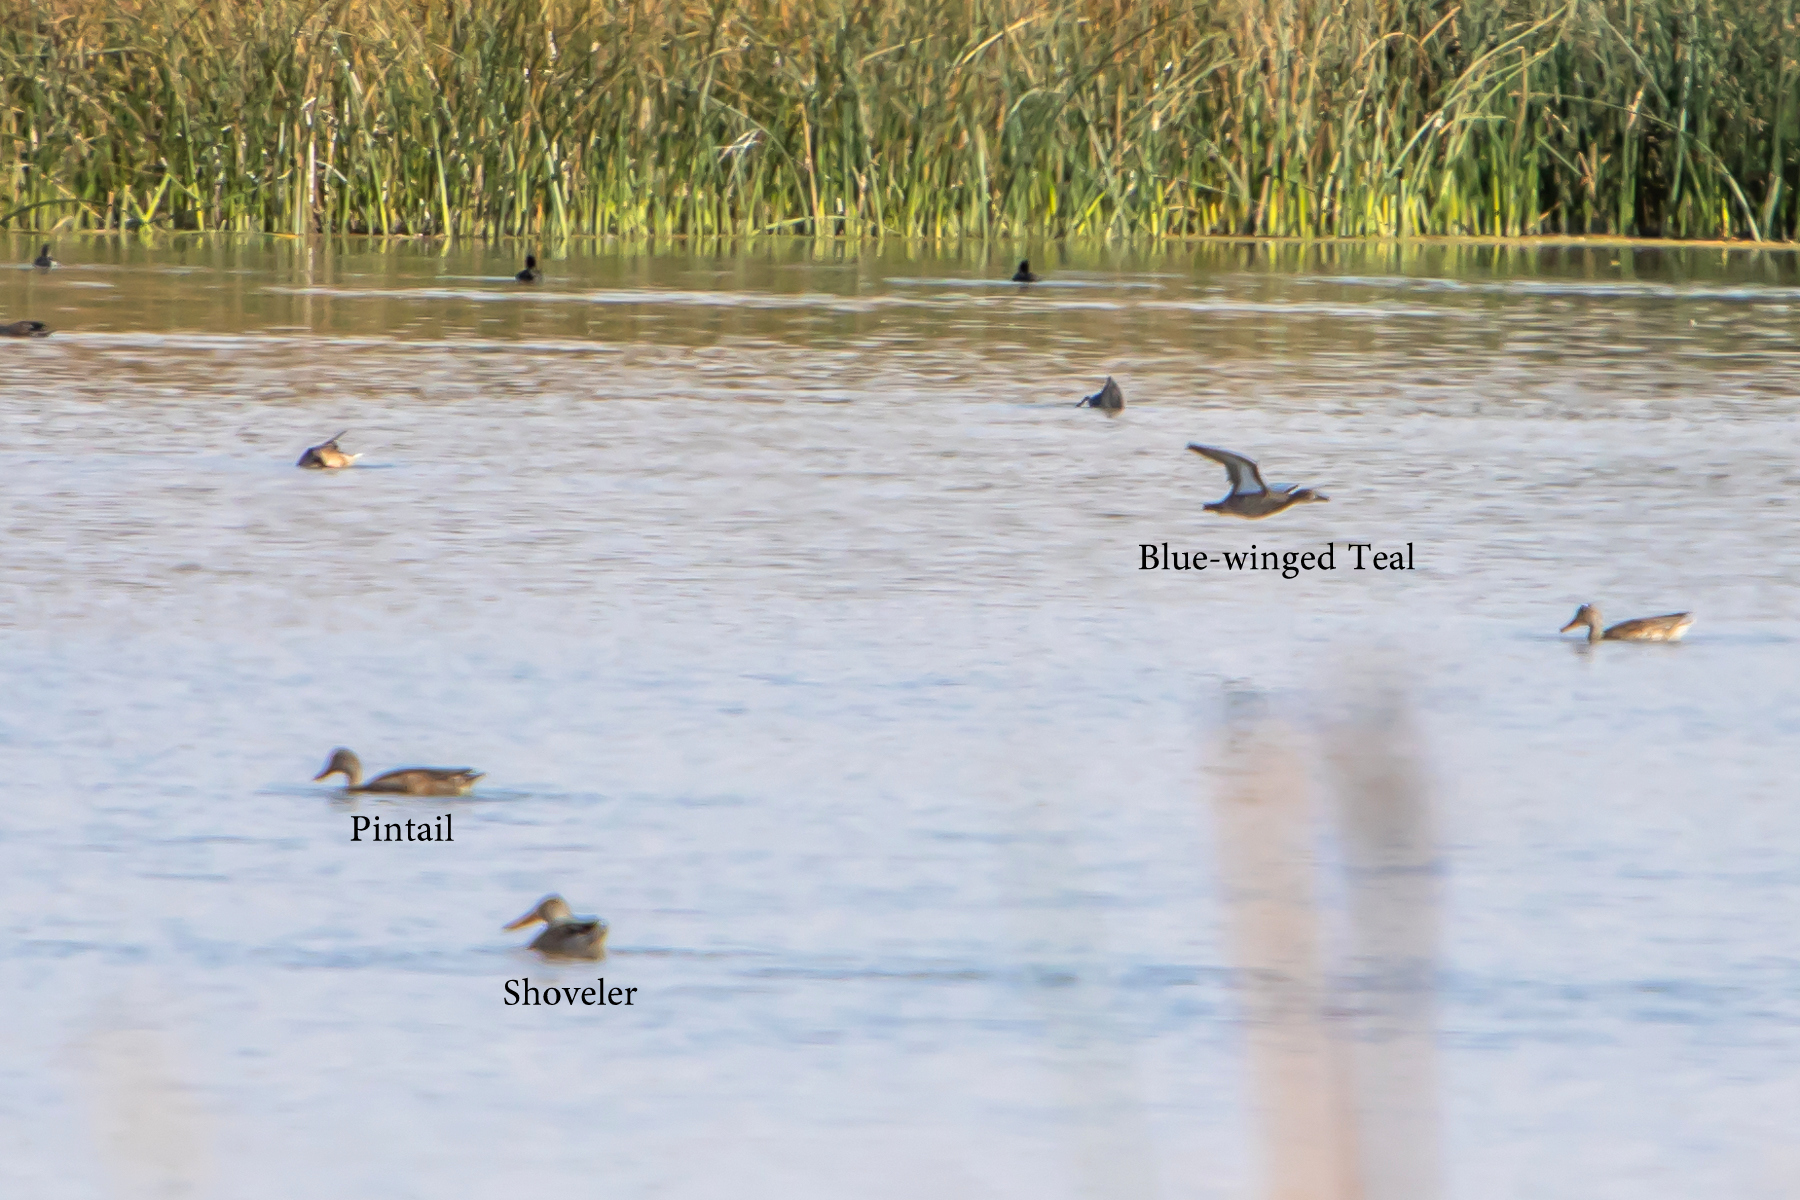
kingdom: Animalia
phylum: Chordata
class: Aves
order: Anseriformes
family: Anatidae
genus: Spatula
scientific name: Spatula discors
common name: Blue-winged teal
